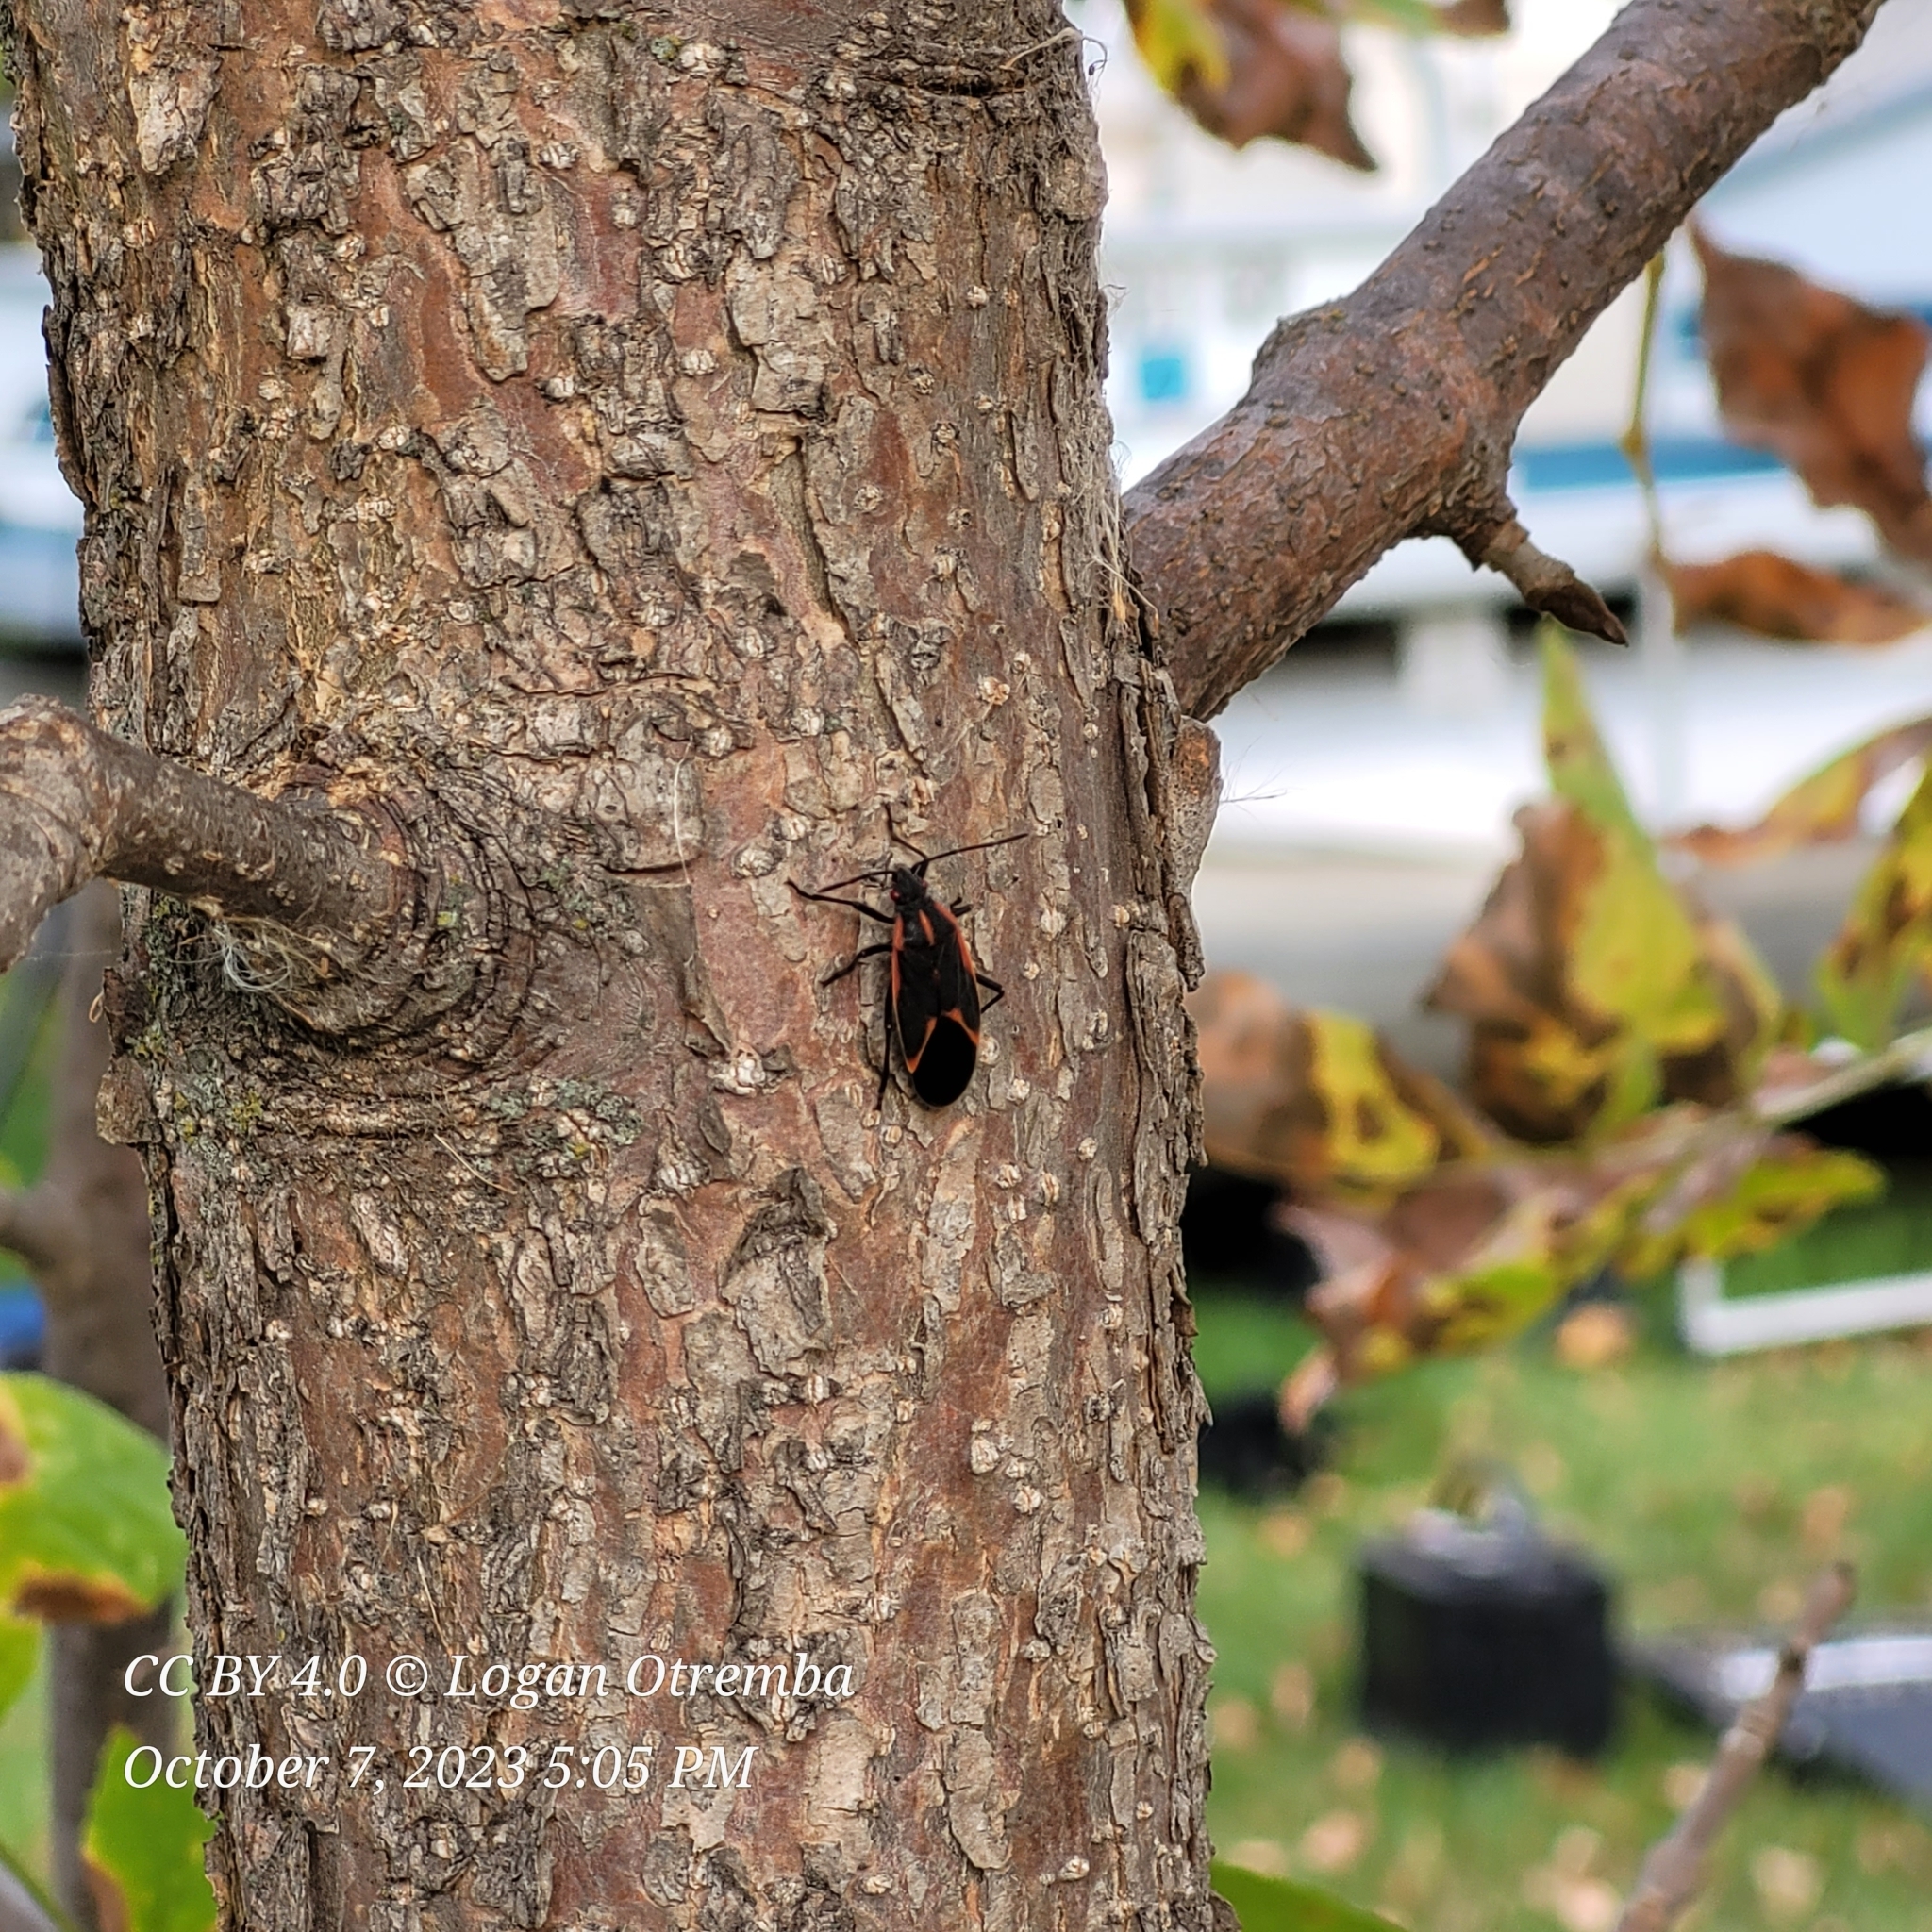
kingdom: Animalia
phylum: Arthropoda
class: Insecta
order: Hemiptera
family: Rhopalidae
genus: Boisea
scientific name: Boisea trivittata
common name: Boxelder bug
